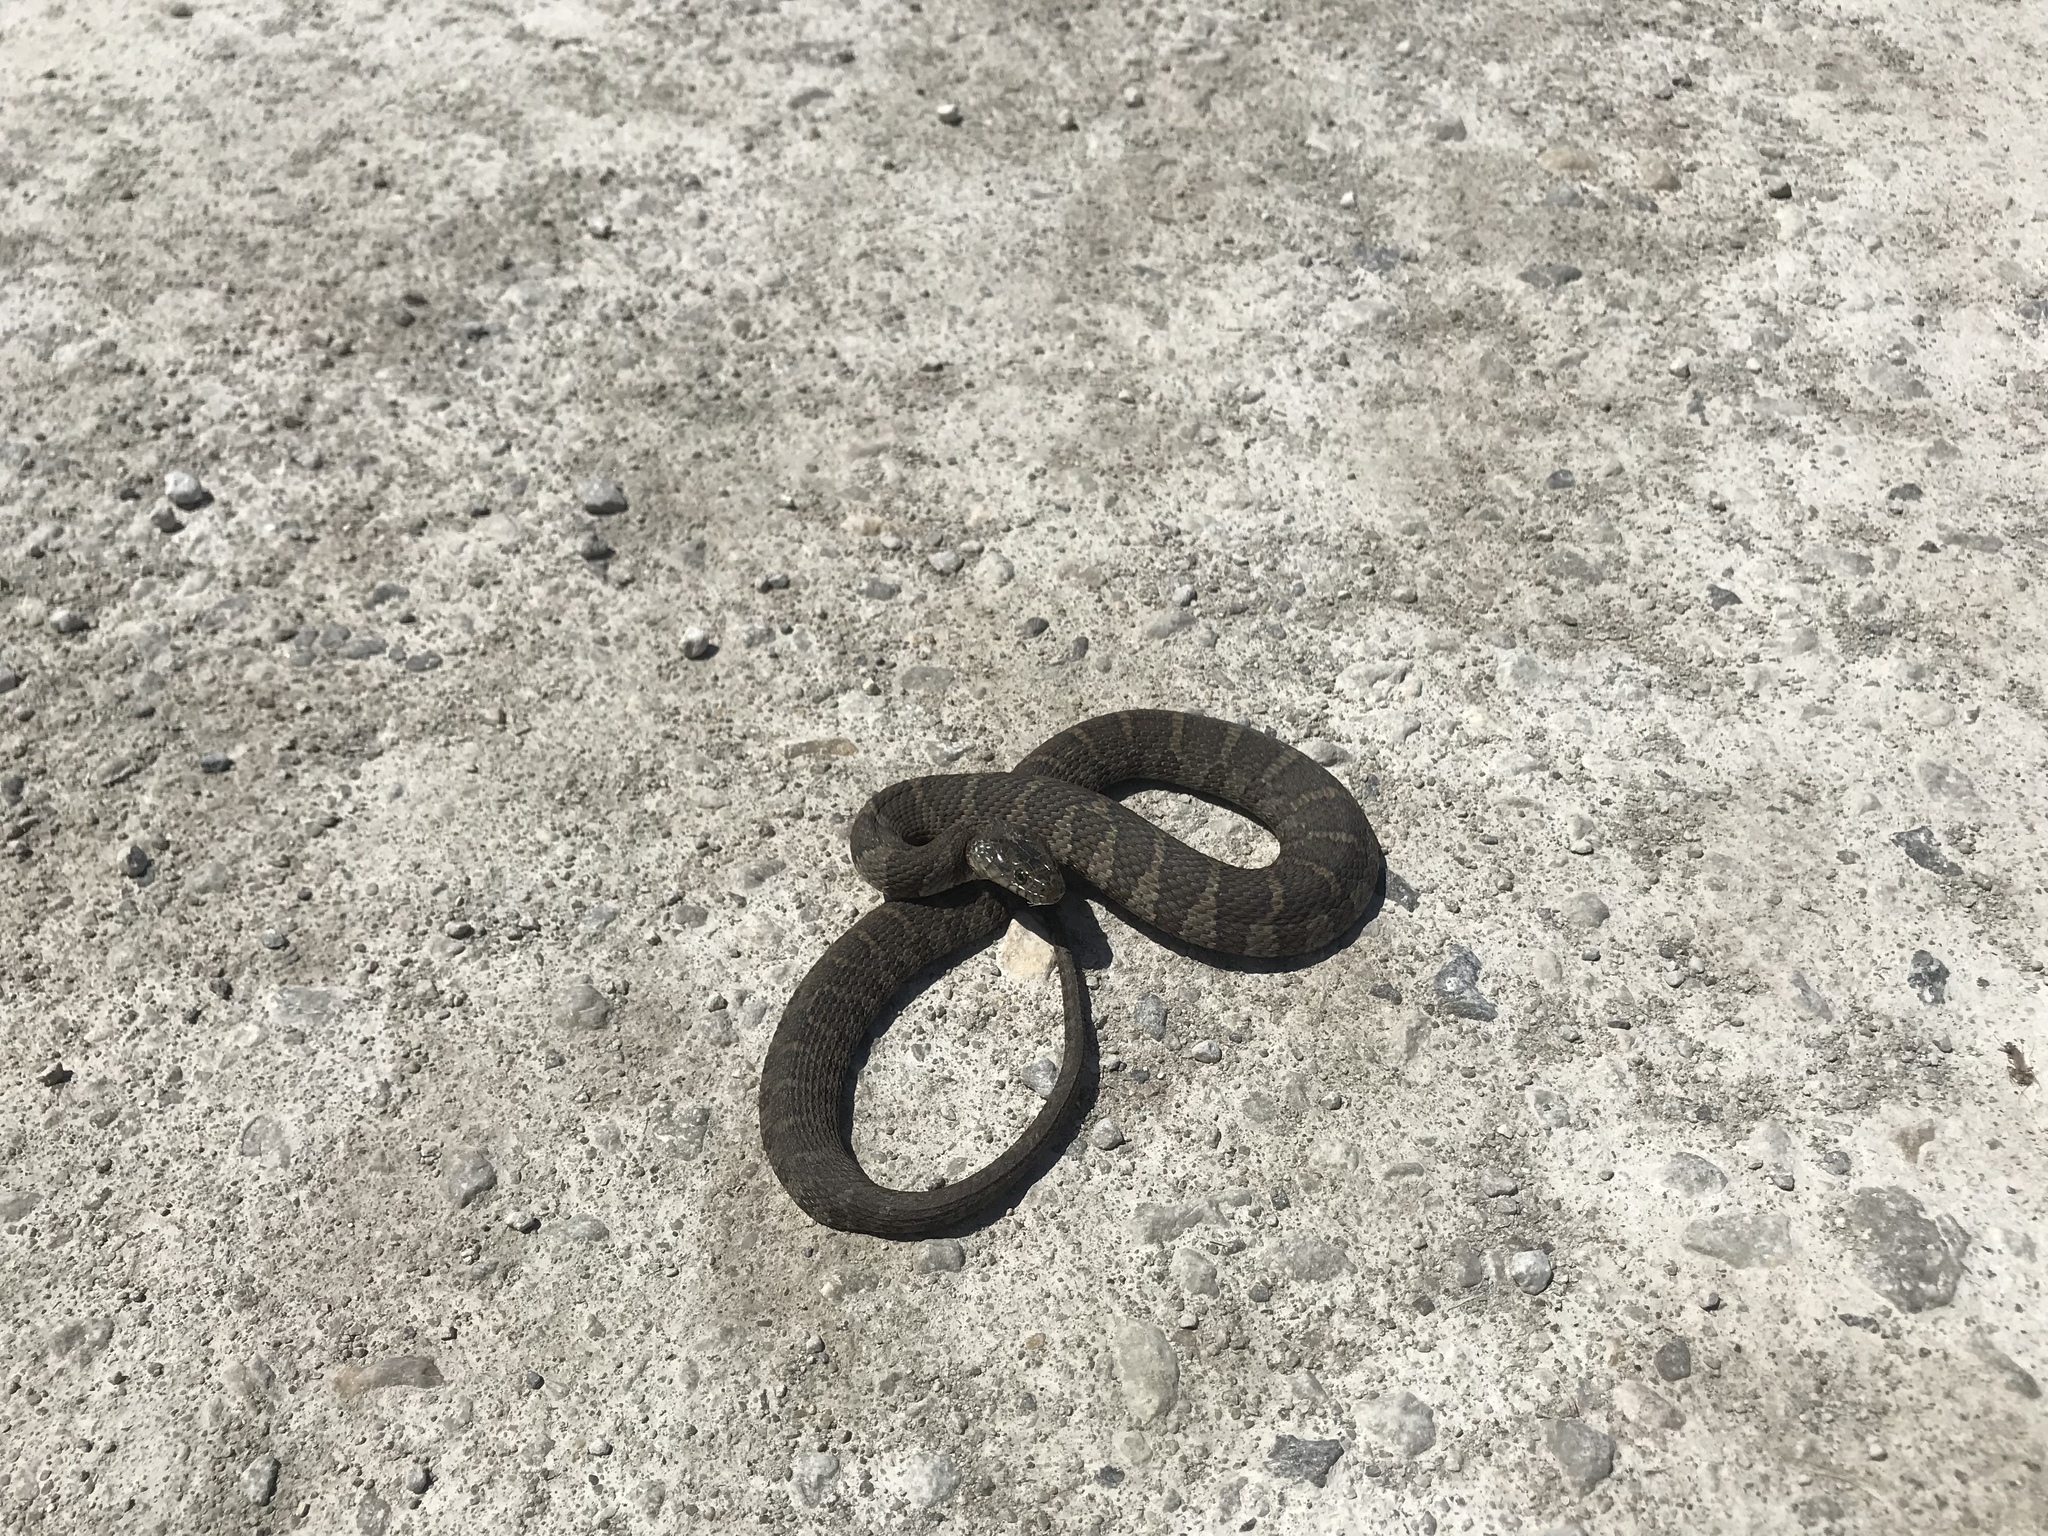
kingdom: Animalia
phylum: Chordata
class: Squamata
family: Colubridae
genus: Nerodia
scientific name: Nerodia sipedon
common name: Northern water snake
